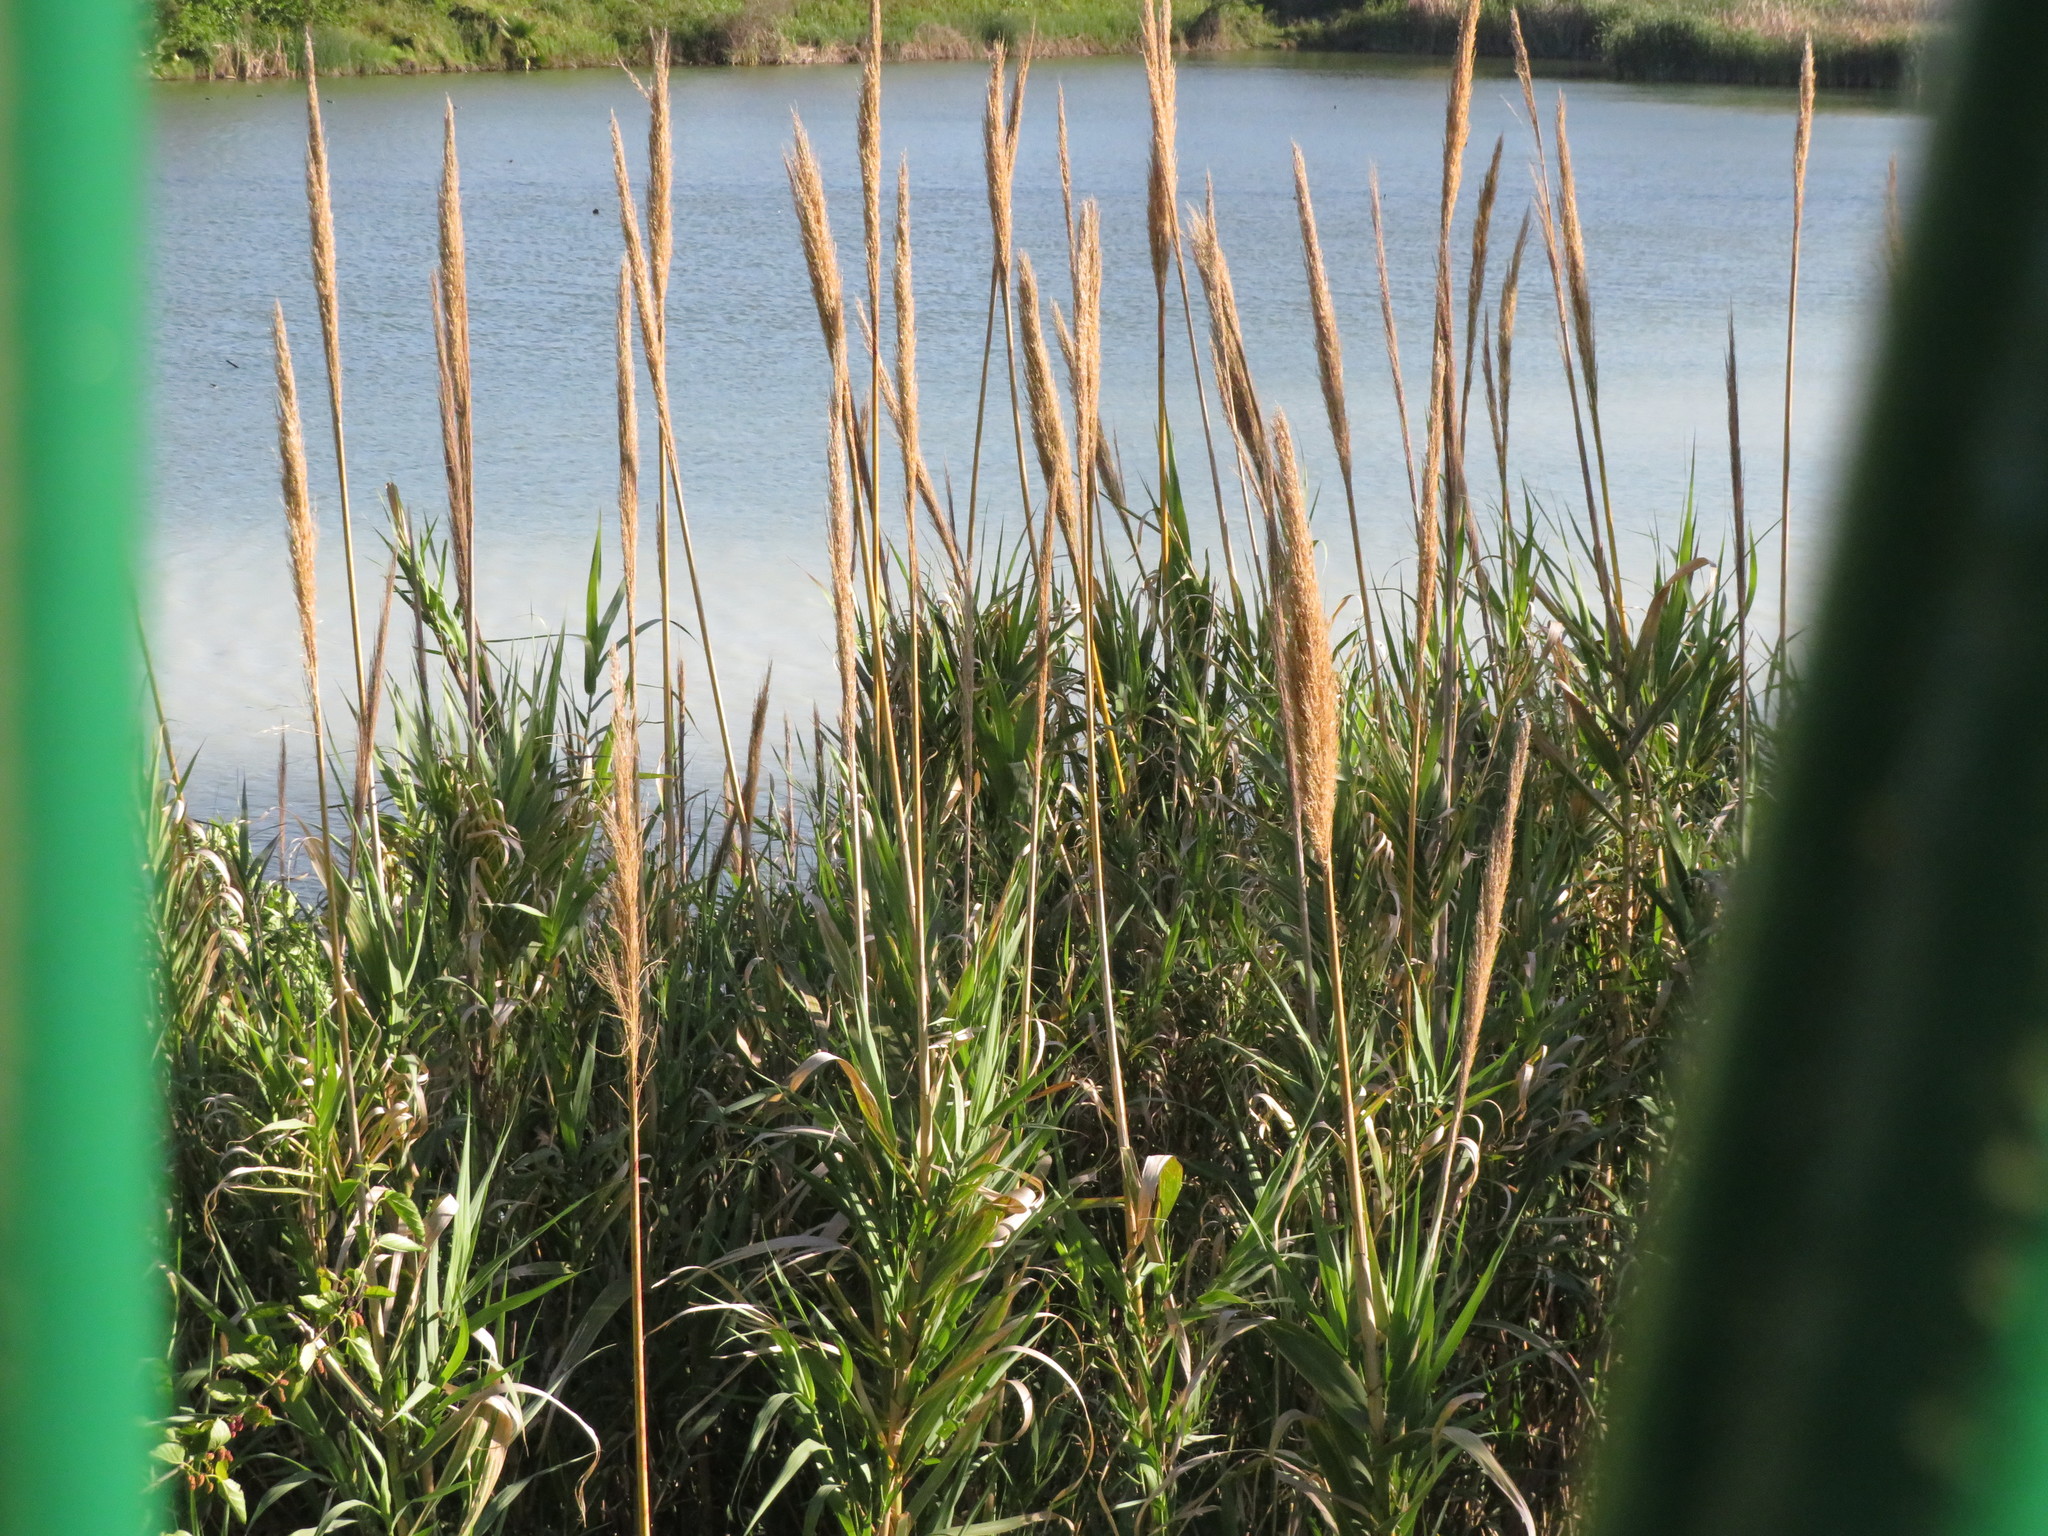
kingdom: Plantae
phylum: Tracheophyta
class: Liliopsida
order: Poales
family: Poaceae
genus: Arundo
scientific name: Arundo donax
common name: Giant reed
